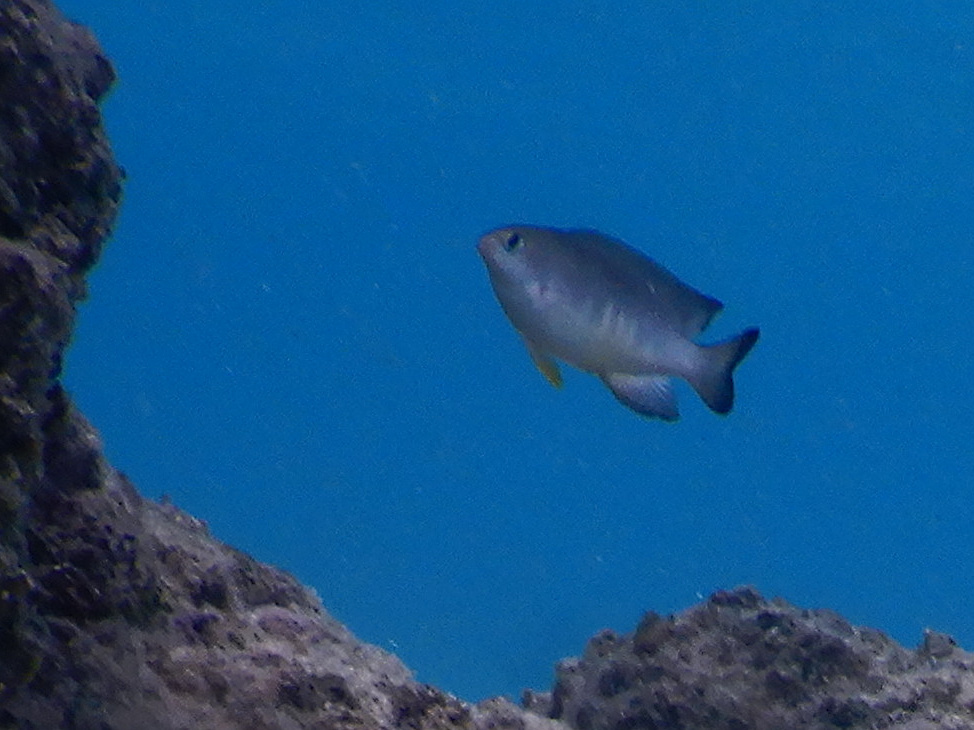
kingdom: Animalia
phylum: Chordata
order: Perciformes
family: Pomacentridae
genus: Chrysiptera
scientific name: Chrysiptera glauca
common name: Grey demoiselle
